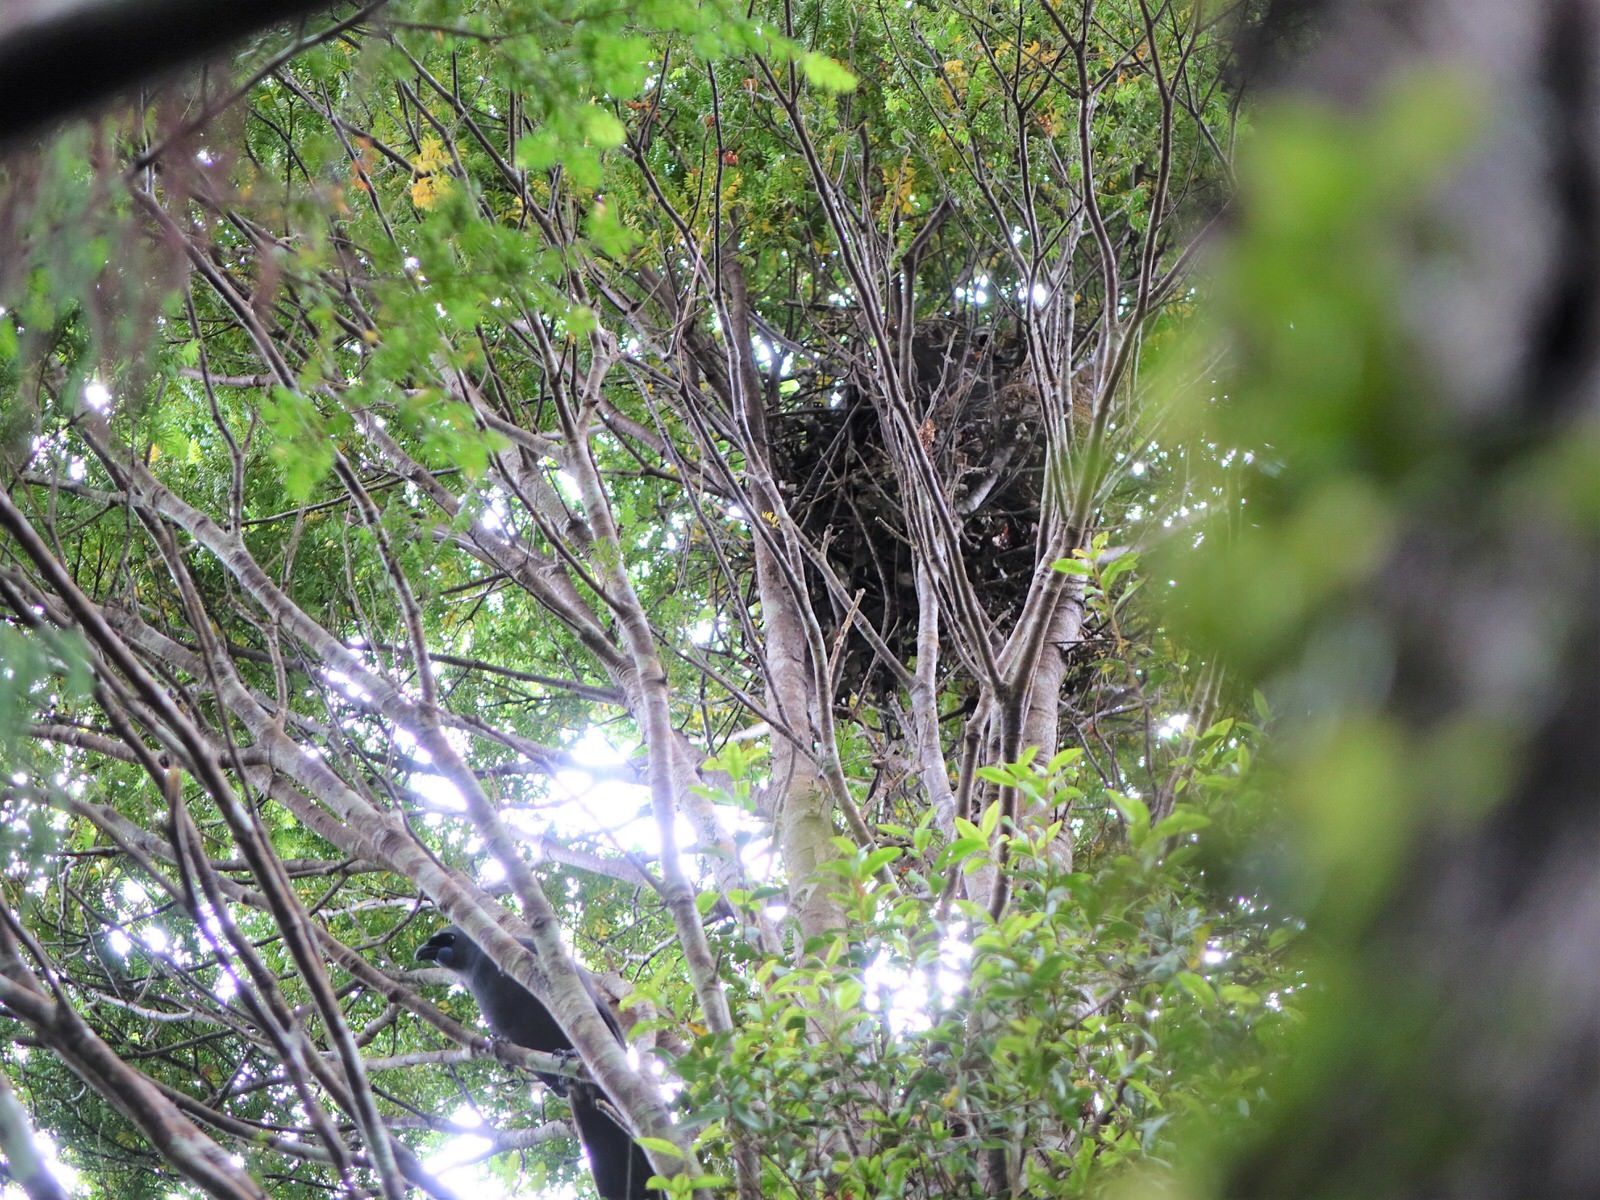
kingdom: Animalia
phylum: Chordata
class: Aves
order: Passeriformes
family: Callaeatidae
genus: Callaeas
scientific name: Callaeas cinereus
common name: South island kokako
